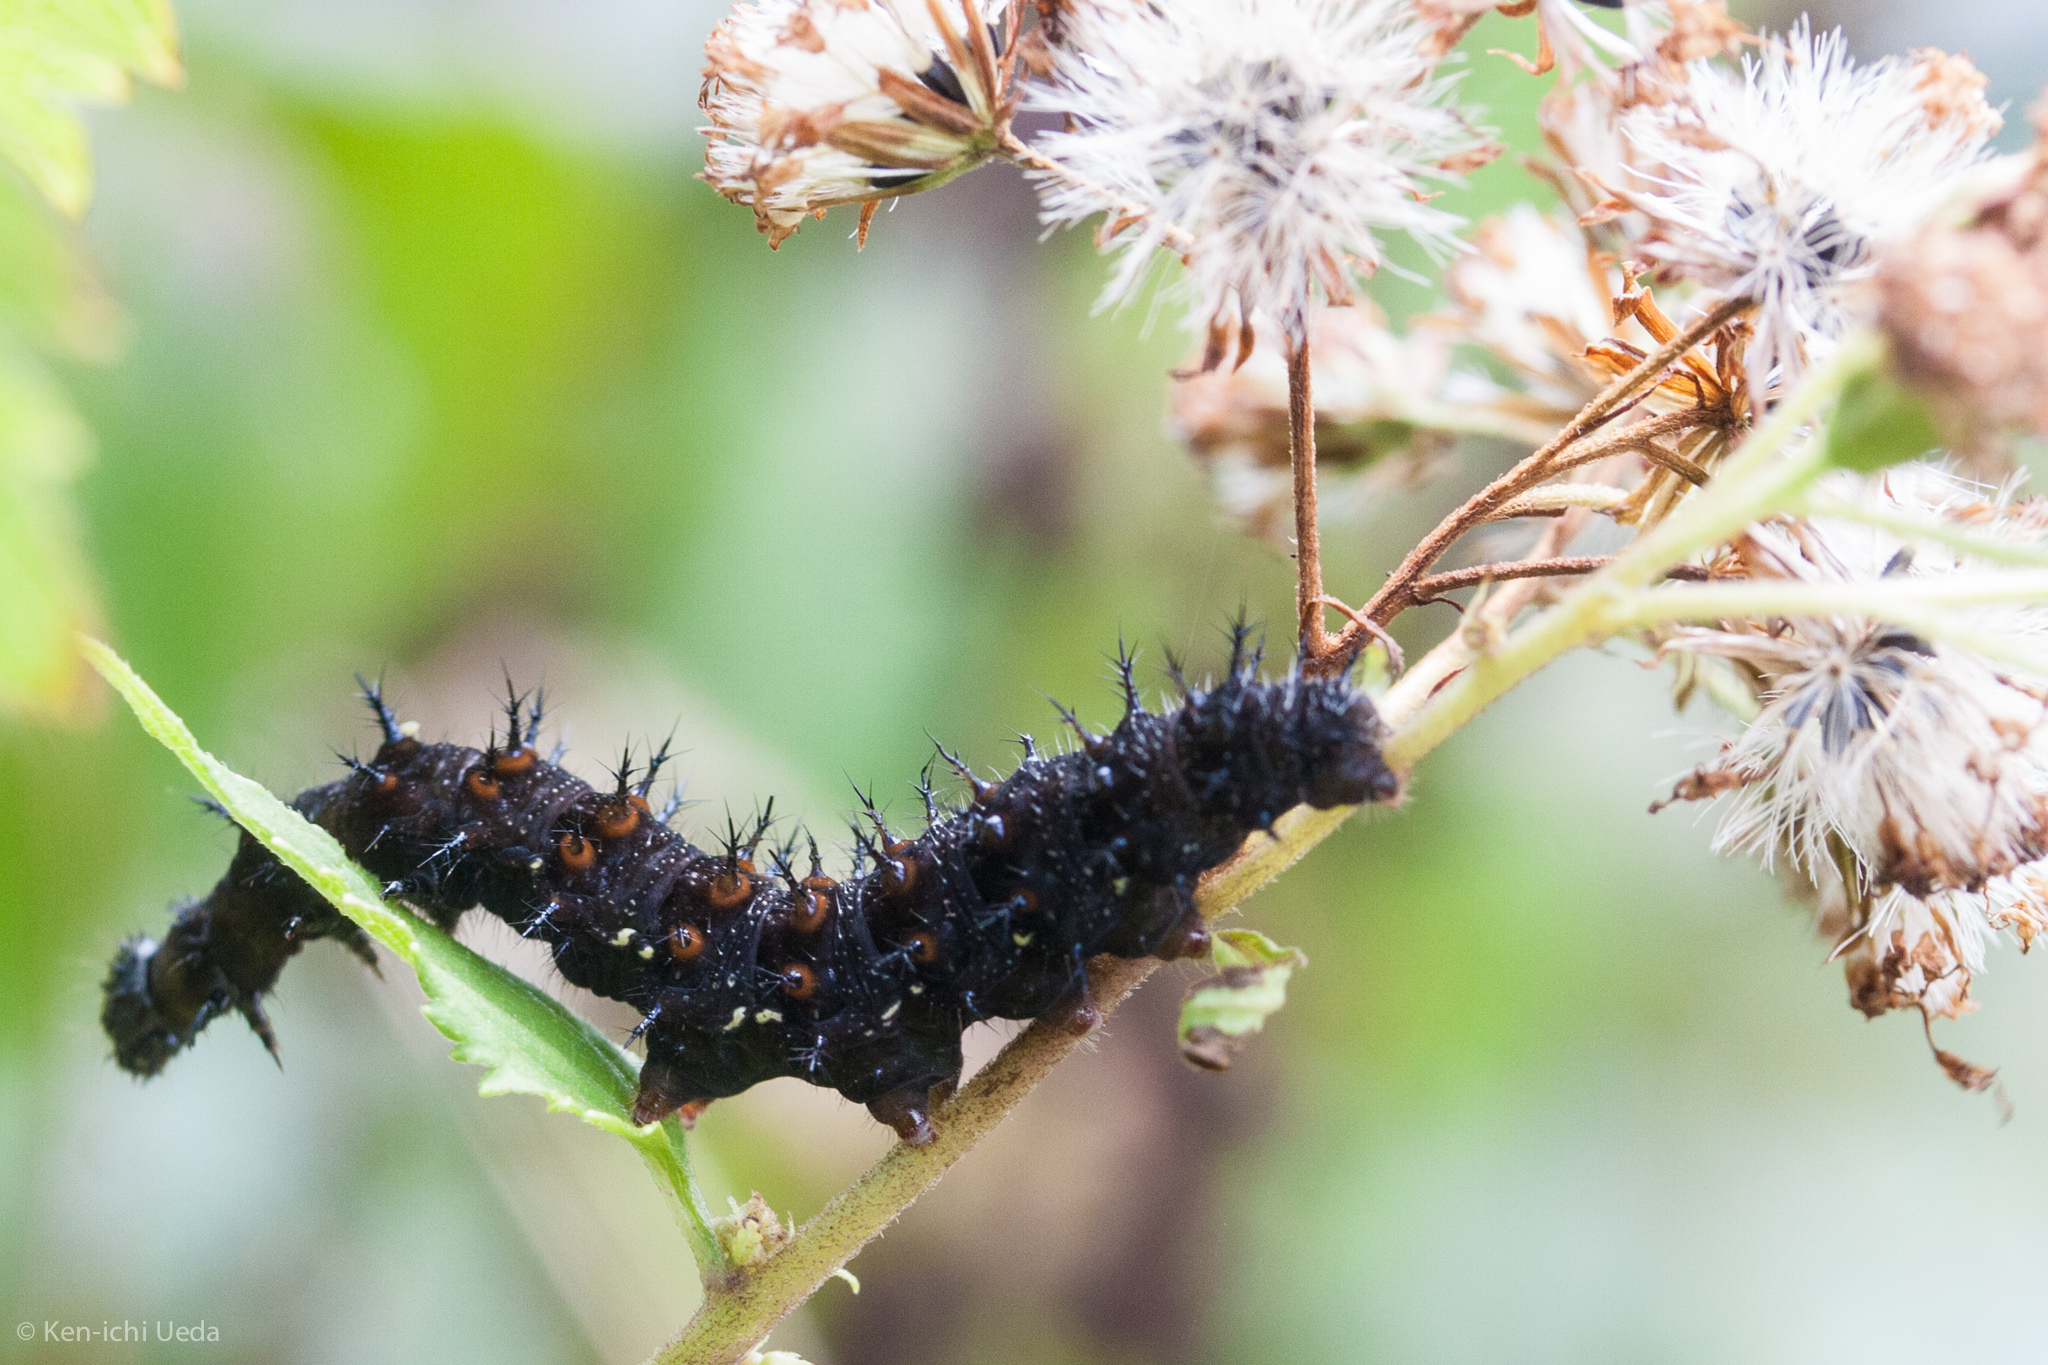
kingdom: Animalia
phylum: Arthropoda
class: Insecta
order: Lepidoptera
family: Nymphalidae
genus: Speyeria
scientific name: Speyeria cybele
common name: Great spangled fritillary
